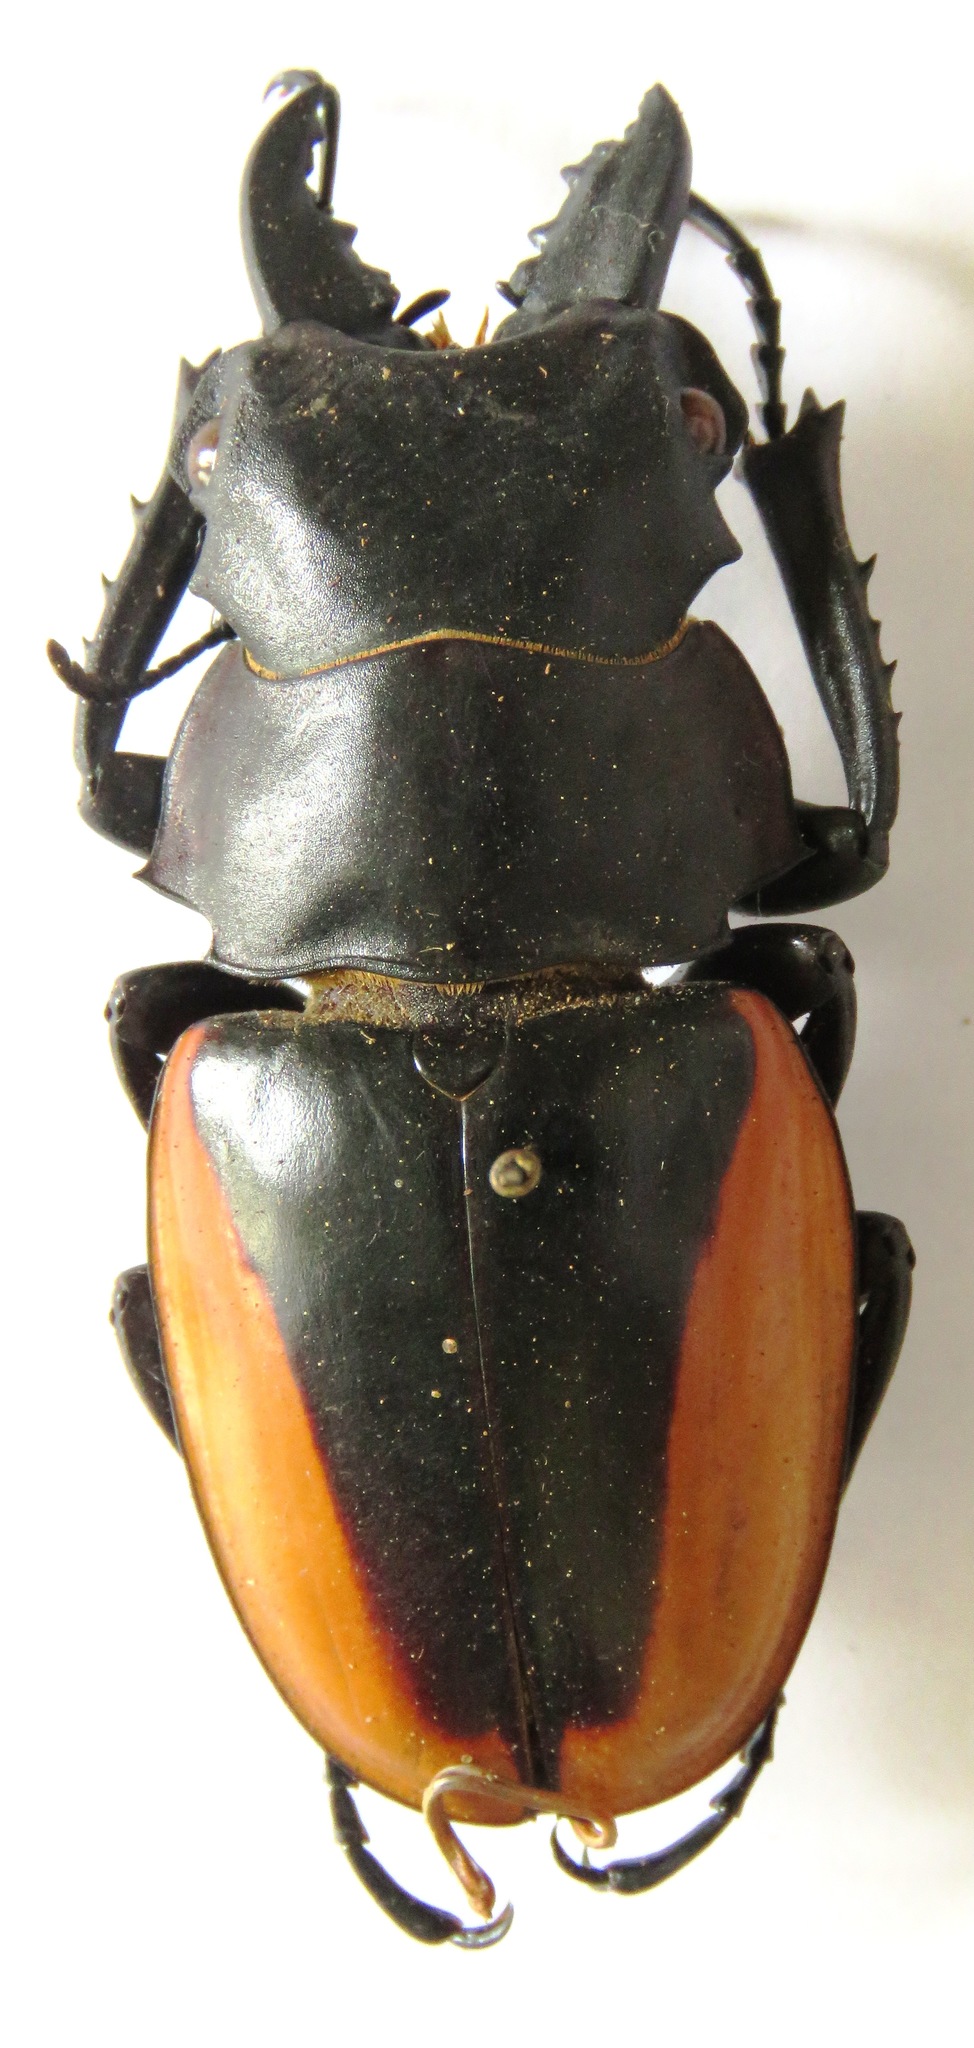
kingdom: Animalia
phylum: Arthropoda
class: Insecta
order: Coleoptera
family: Lucanidae
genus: Odontolabis
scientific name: Odontolabis cuvera
